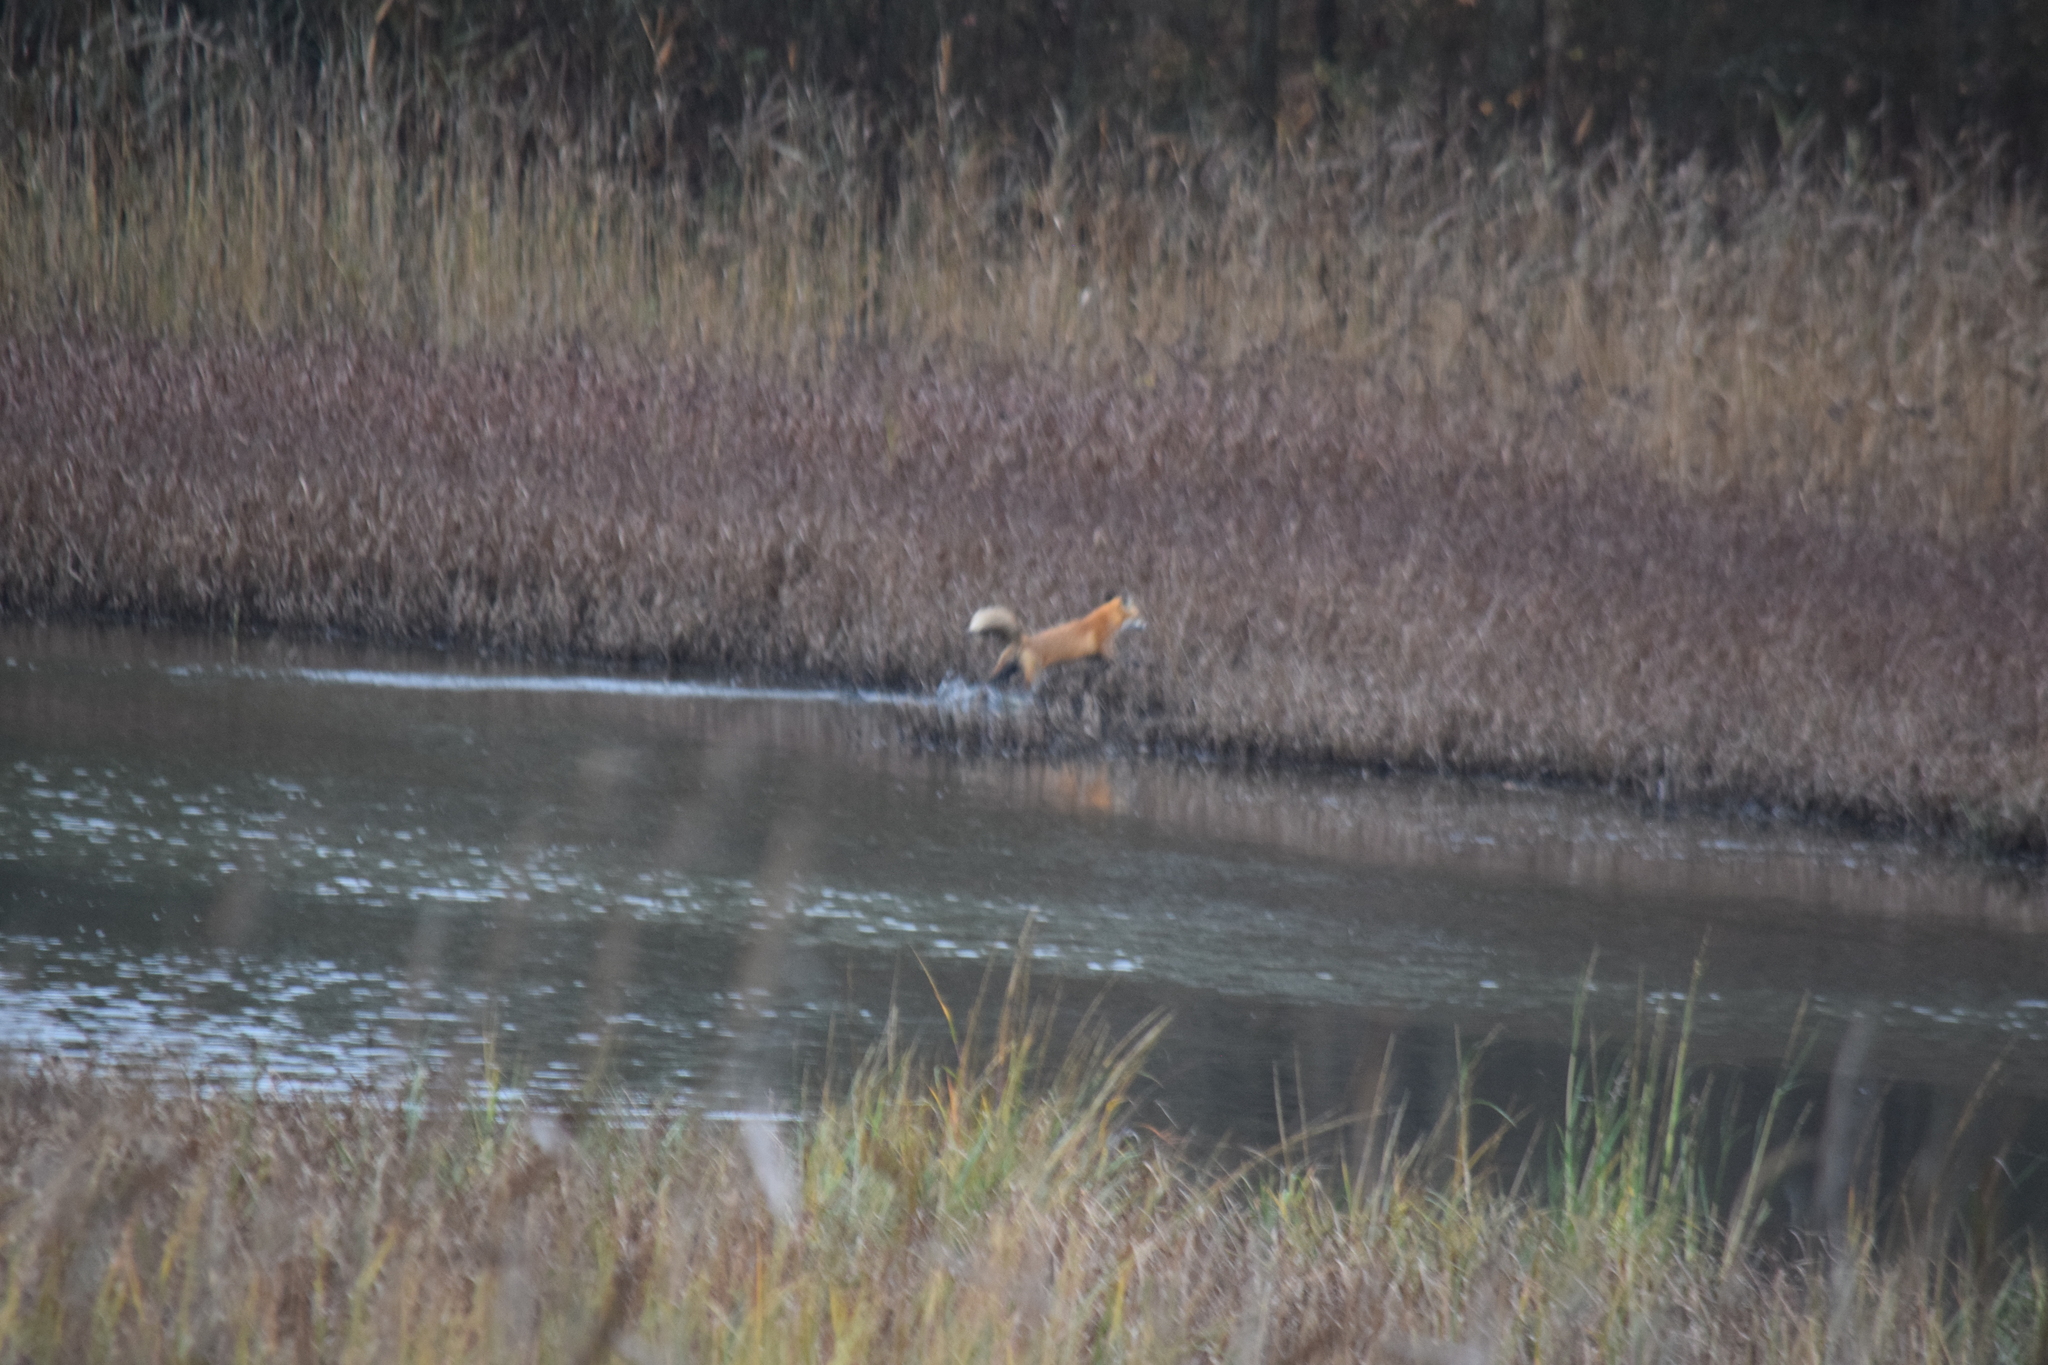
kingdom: Animalia
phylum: Chordata
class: Mammalia
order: Carnivora
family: Canidae
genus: Vulpes
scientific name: Vulpes vulpes
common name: Red fox
